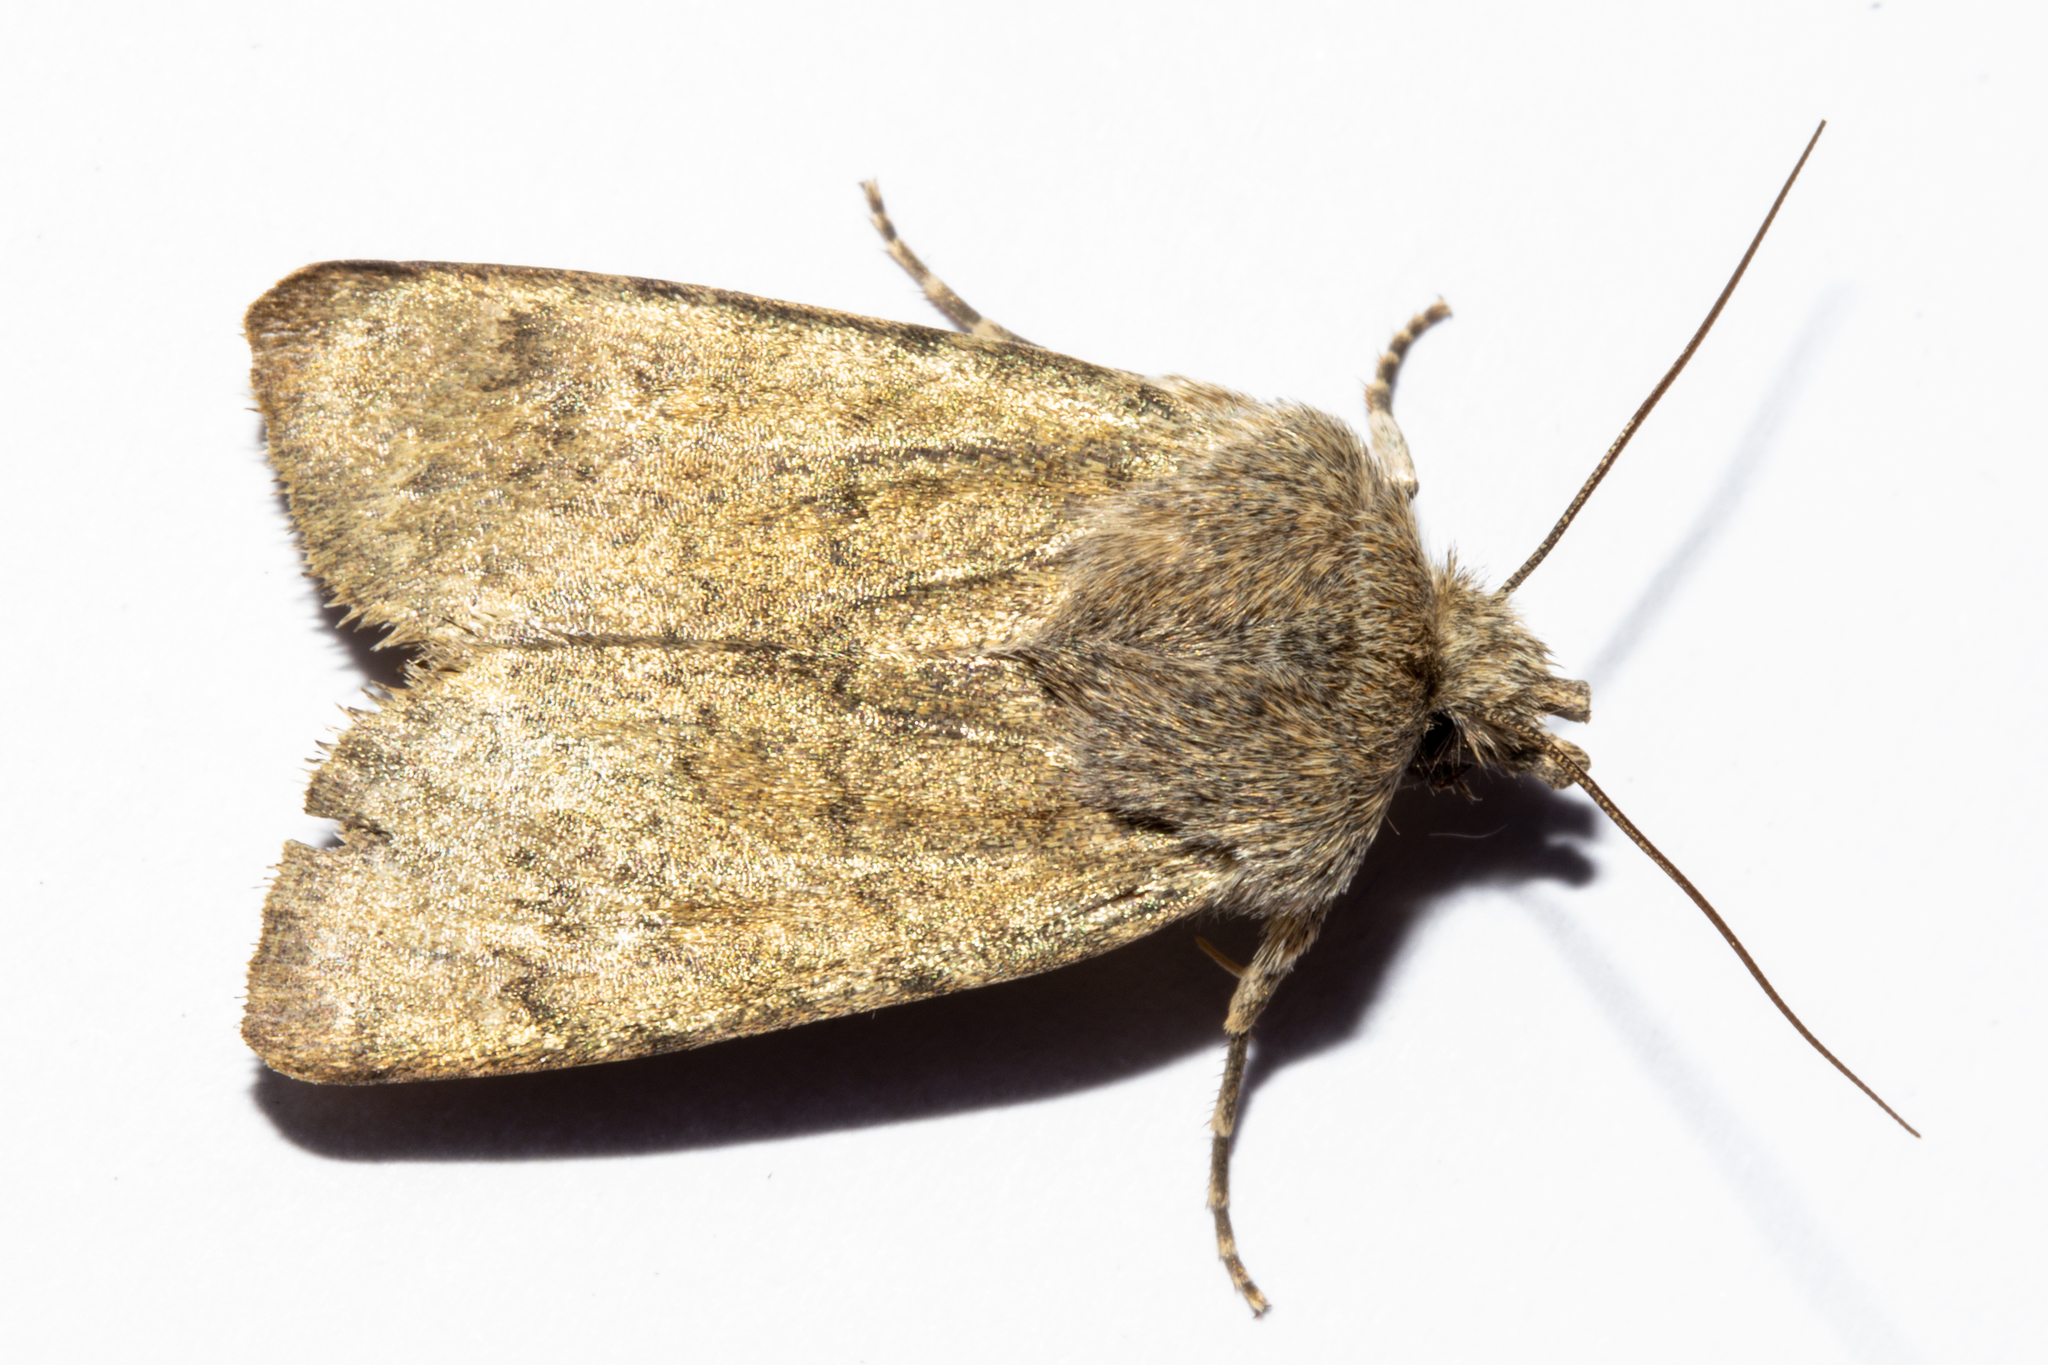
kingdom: Animalia
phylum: Arthropoda
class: Insecta
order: Lepidoptera
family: Noctuidae
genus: Physetica
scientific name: Physetica caerulea
